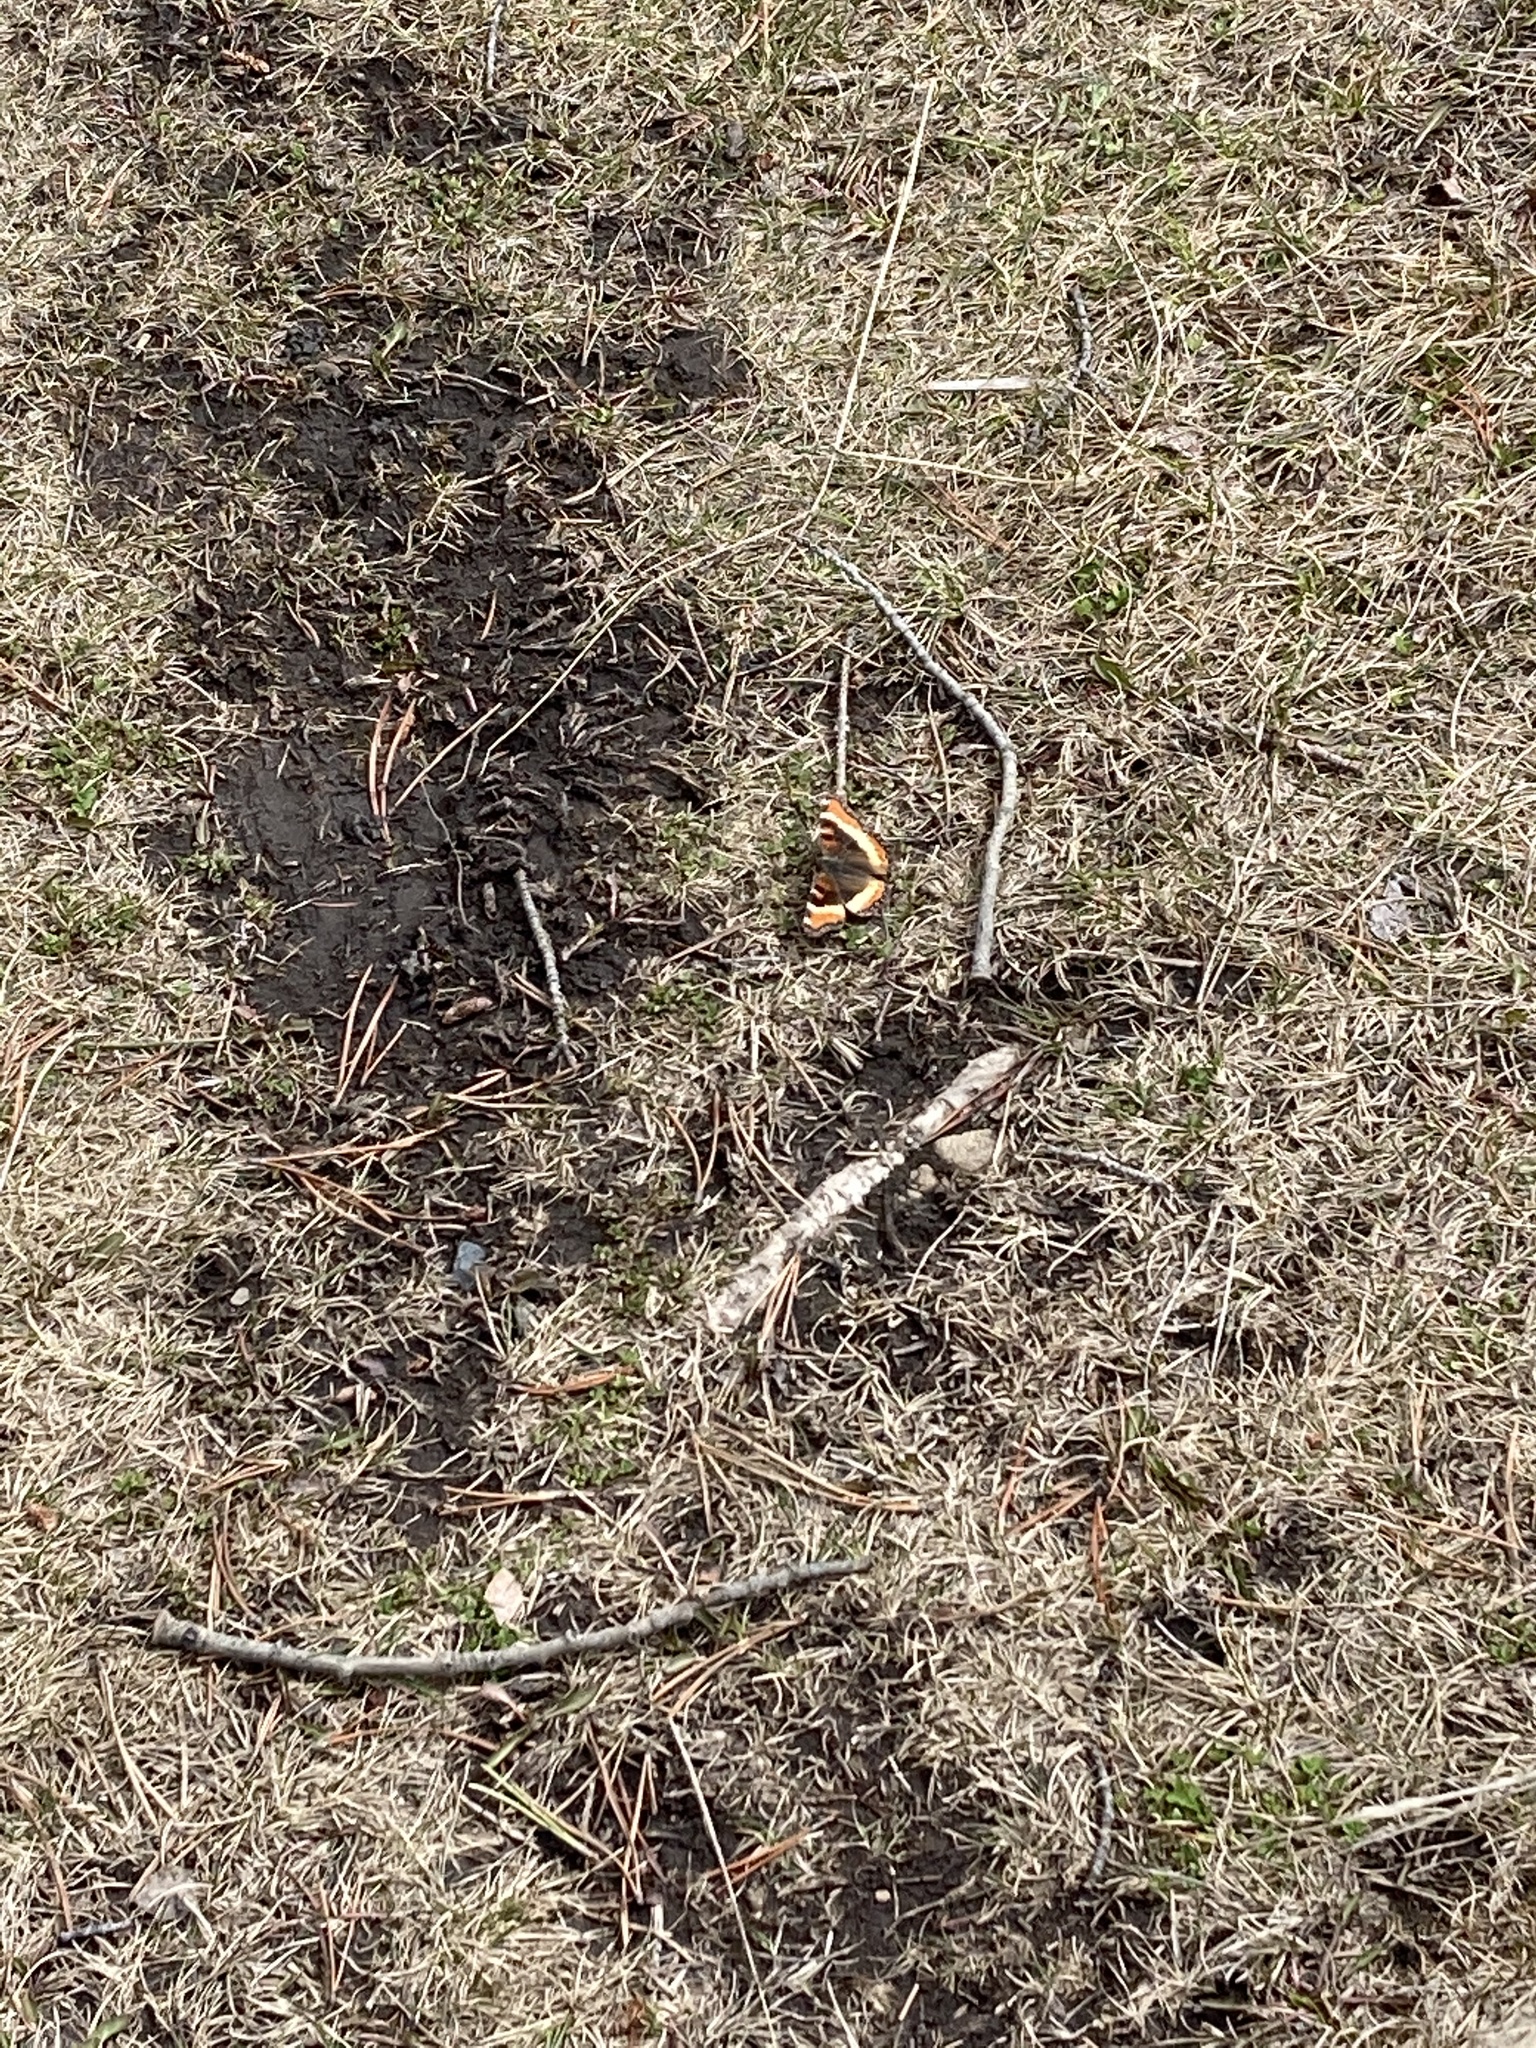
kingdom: Animalia
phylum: Arthropoda
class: Insecta
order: Lepidoptera
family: Nymphalidae
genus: Aglais
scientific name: Aglais milberti
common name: Milbert's tortoiseshell
